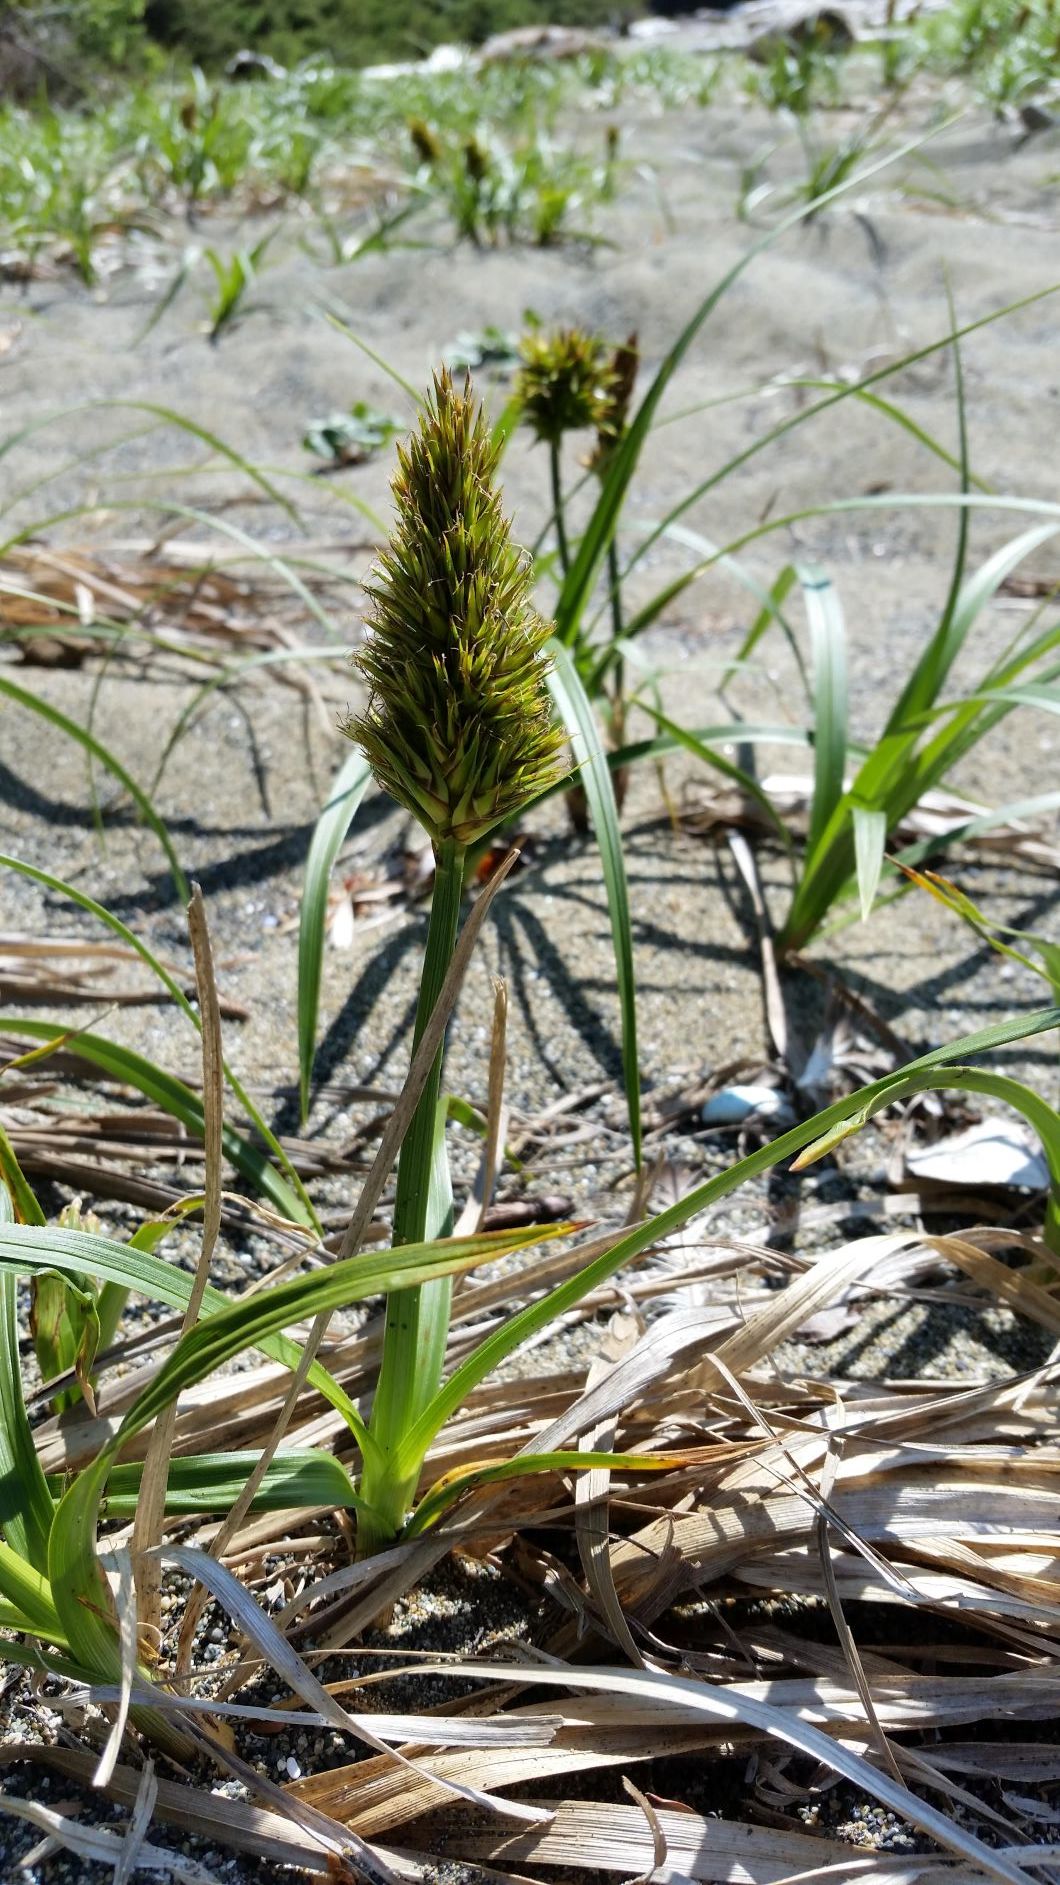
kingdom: Plantae
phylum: Tracheophyta
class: Liliopsida
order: Poales
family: Cyperaceae
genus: Carex
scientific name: Carex macrocephala
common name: Large-head sedge
